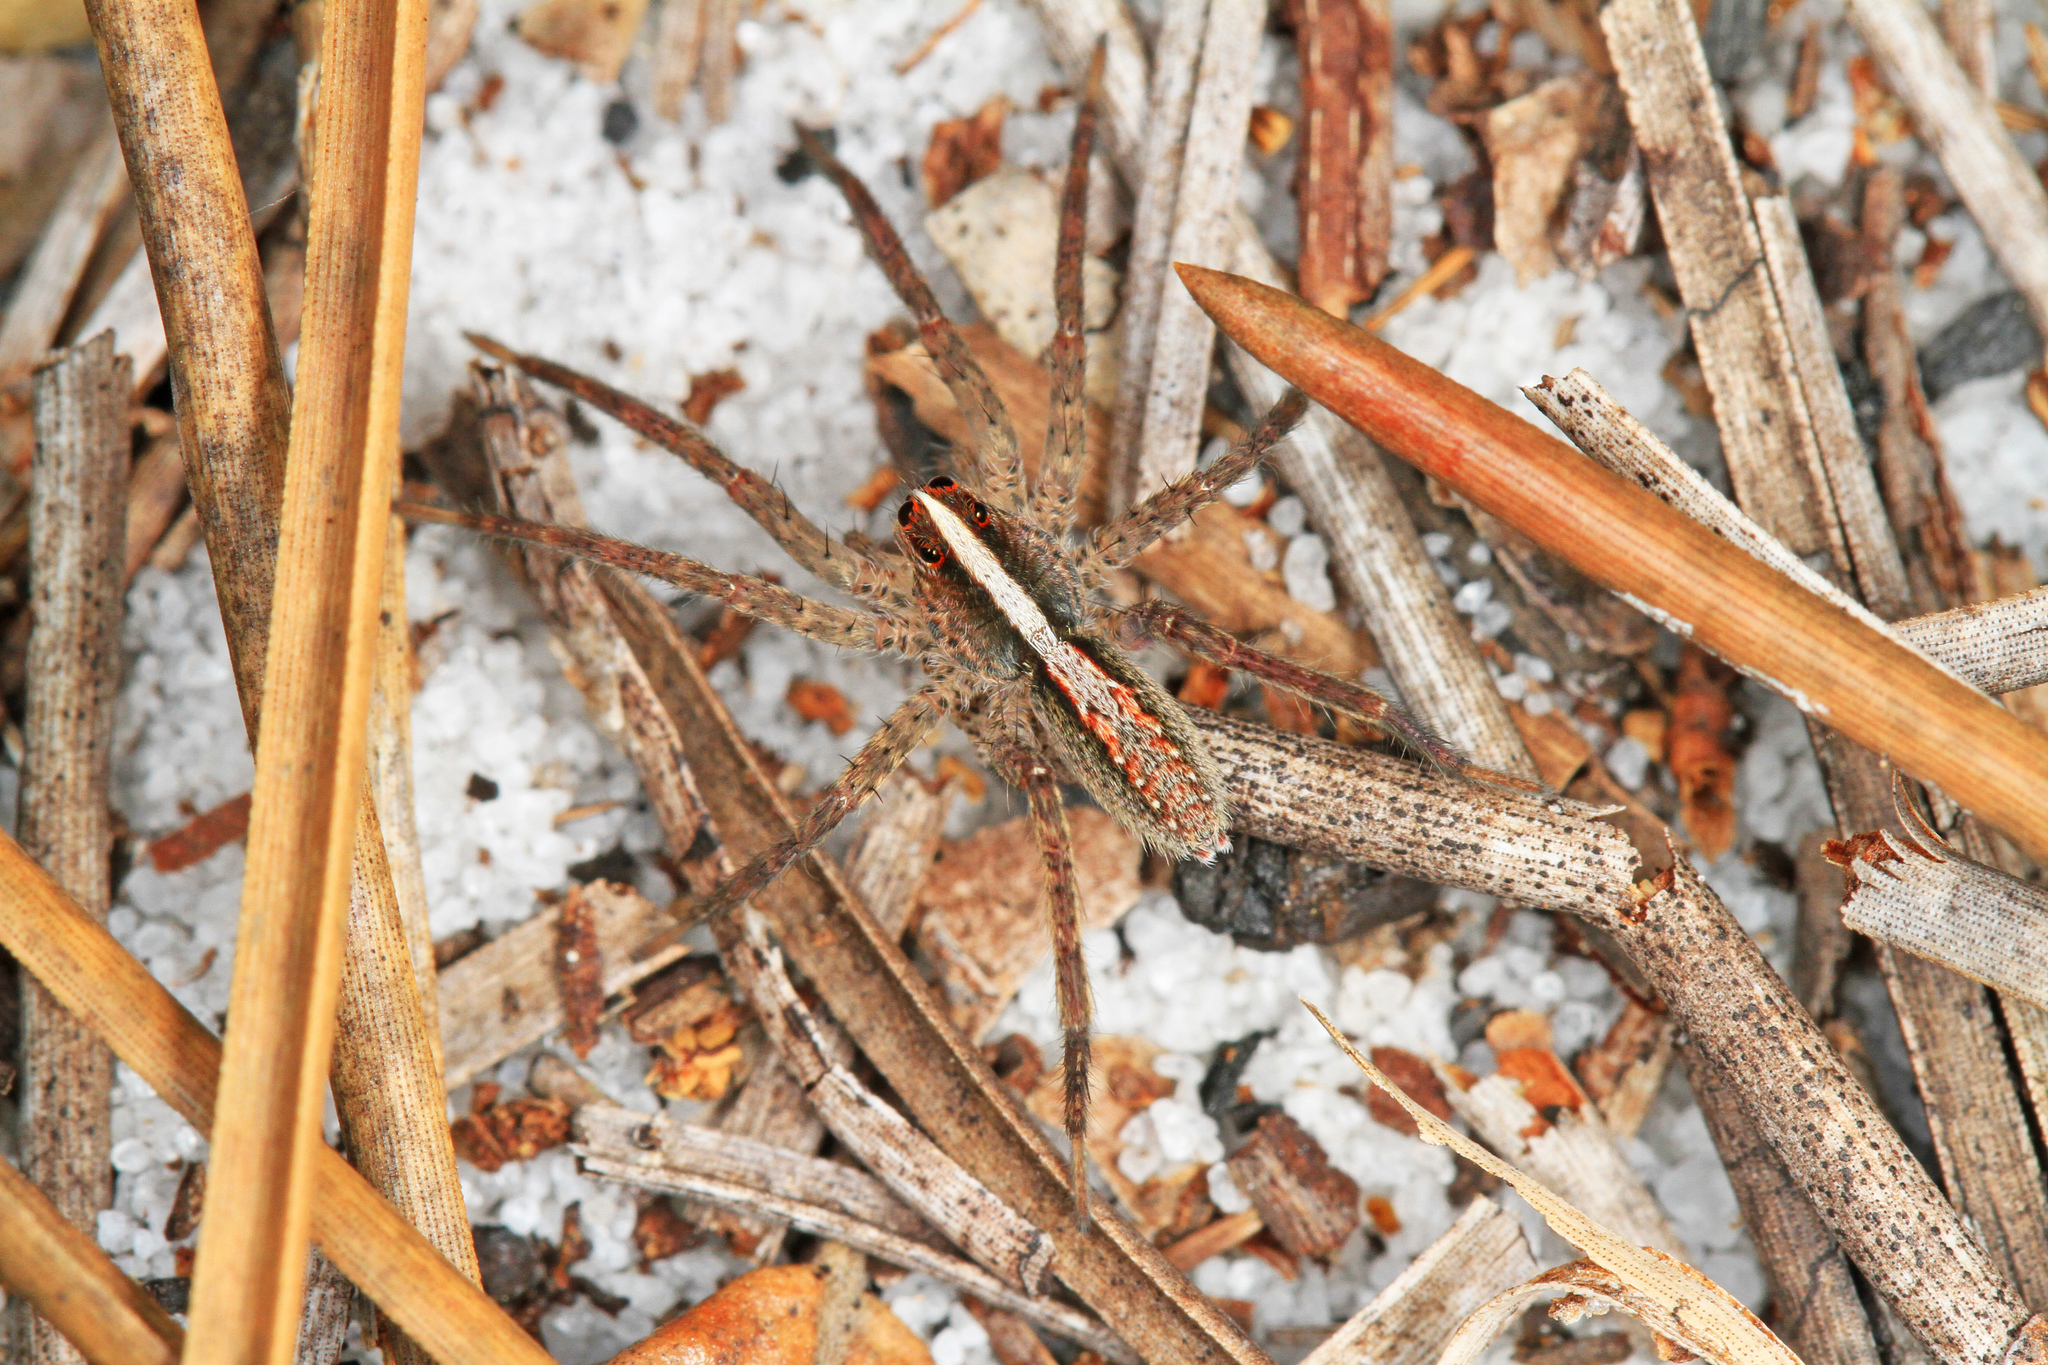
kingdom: Animalia
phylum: Arthropoda
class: Arachnida
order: Araneae
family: Lycosidae
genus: Rabidosa
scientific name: Rabidosa hentzi
